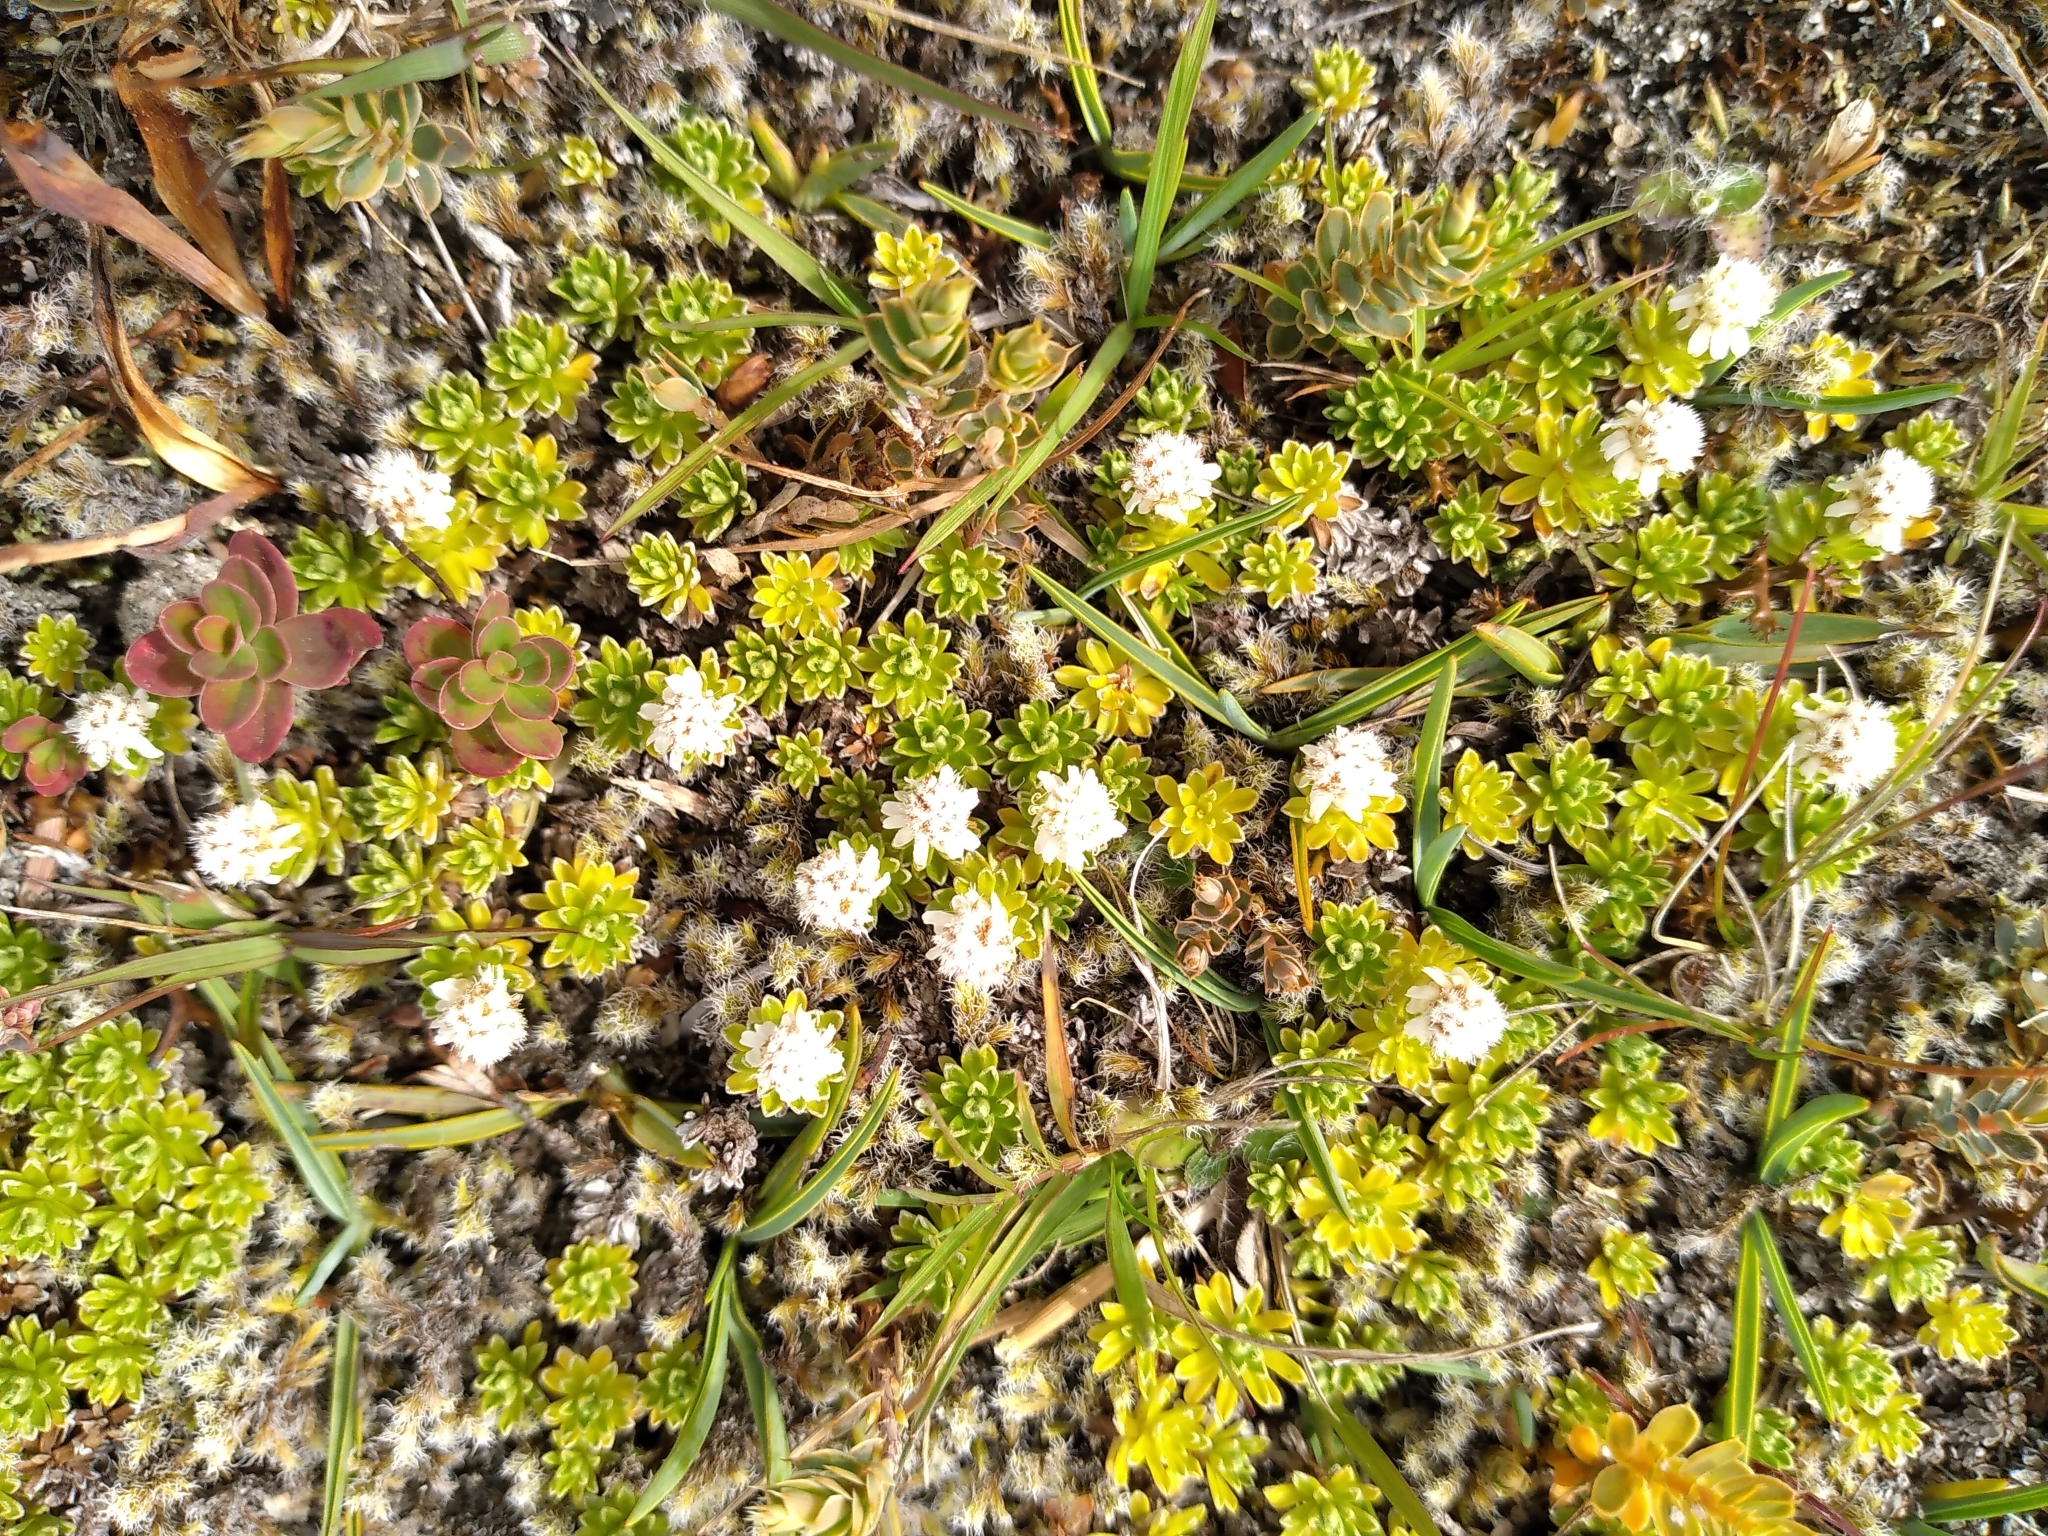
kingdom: Plantae
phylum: Tracheophyta
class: Magnoliopsida
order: Asterales
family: Asteraceae
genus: Raoulia
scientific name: Raoulia subsericea
